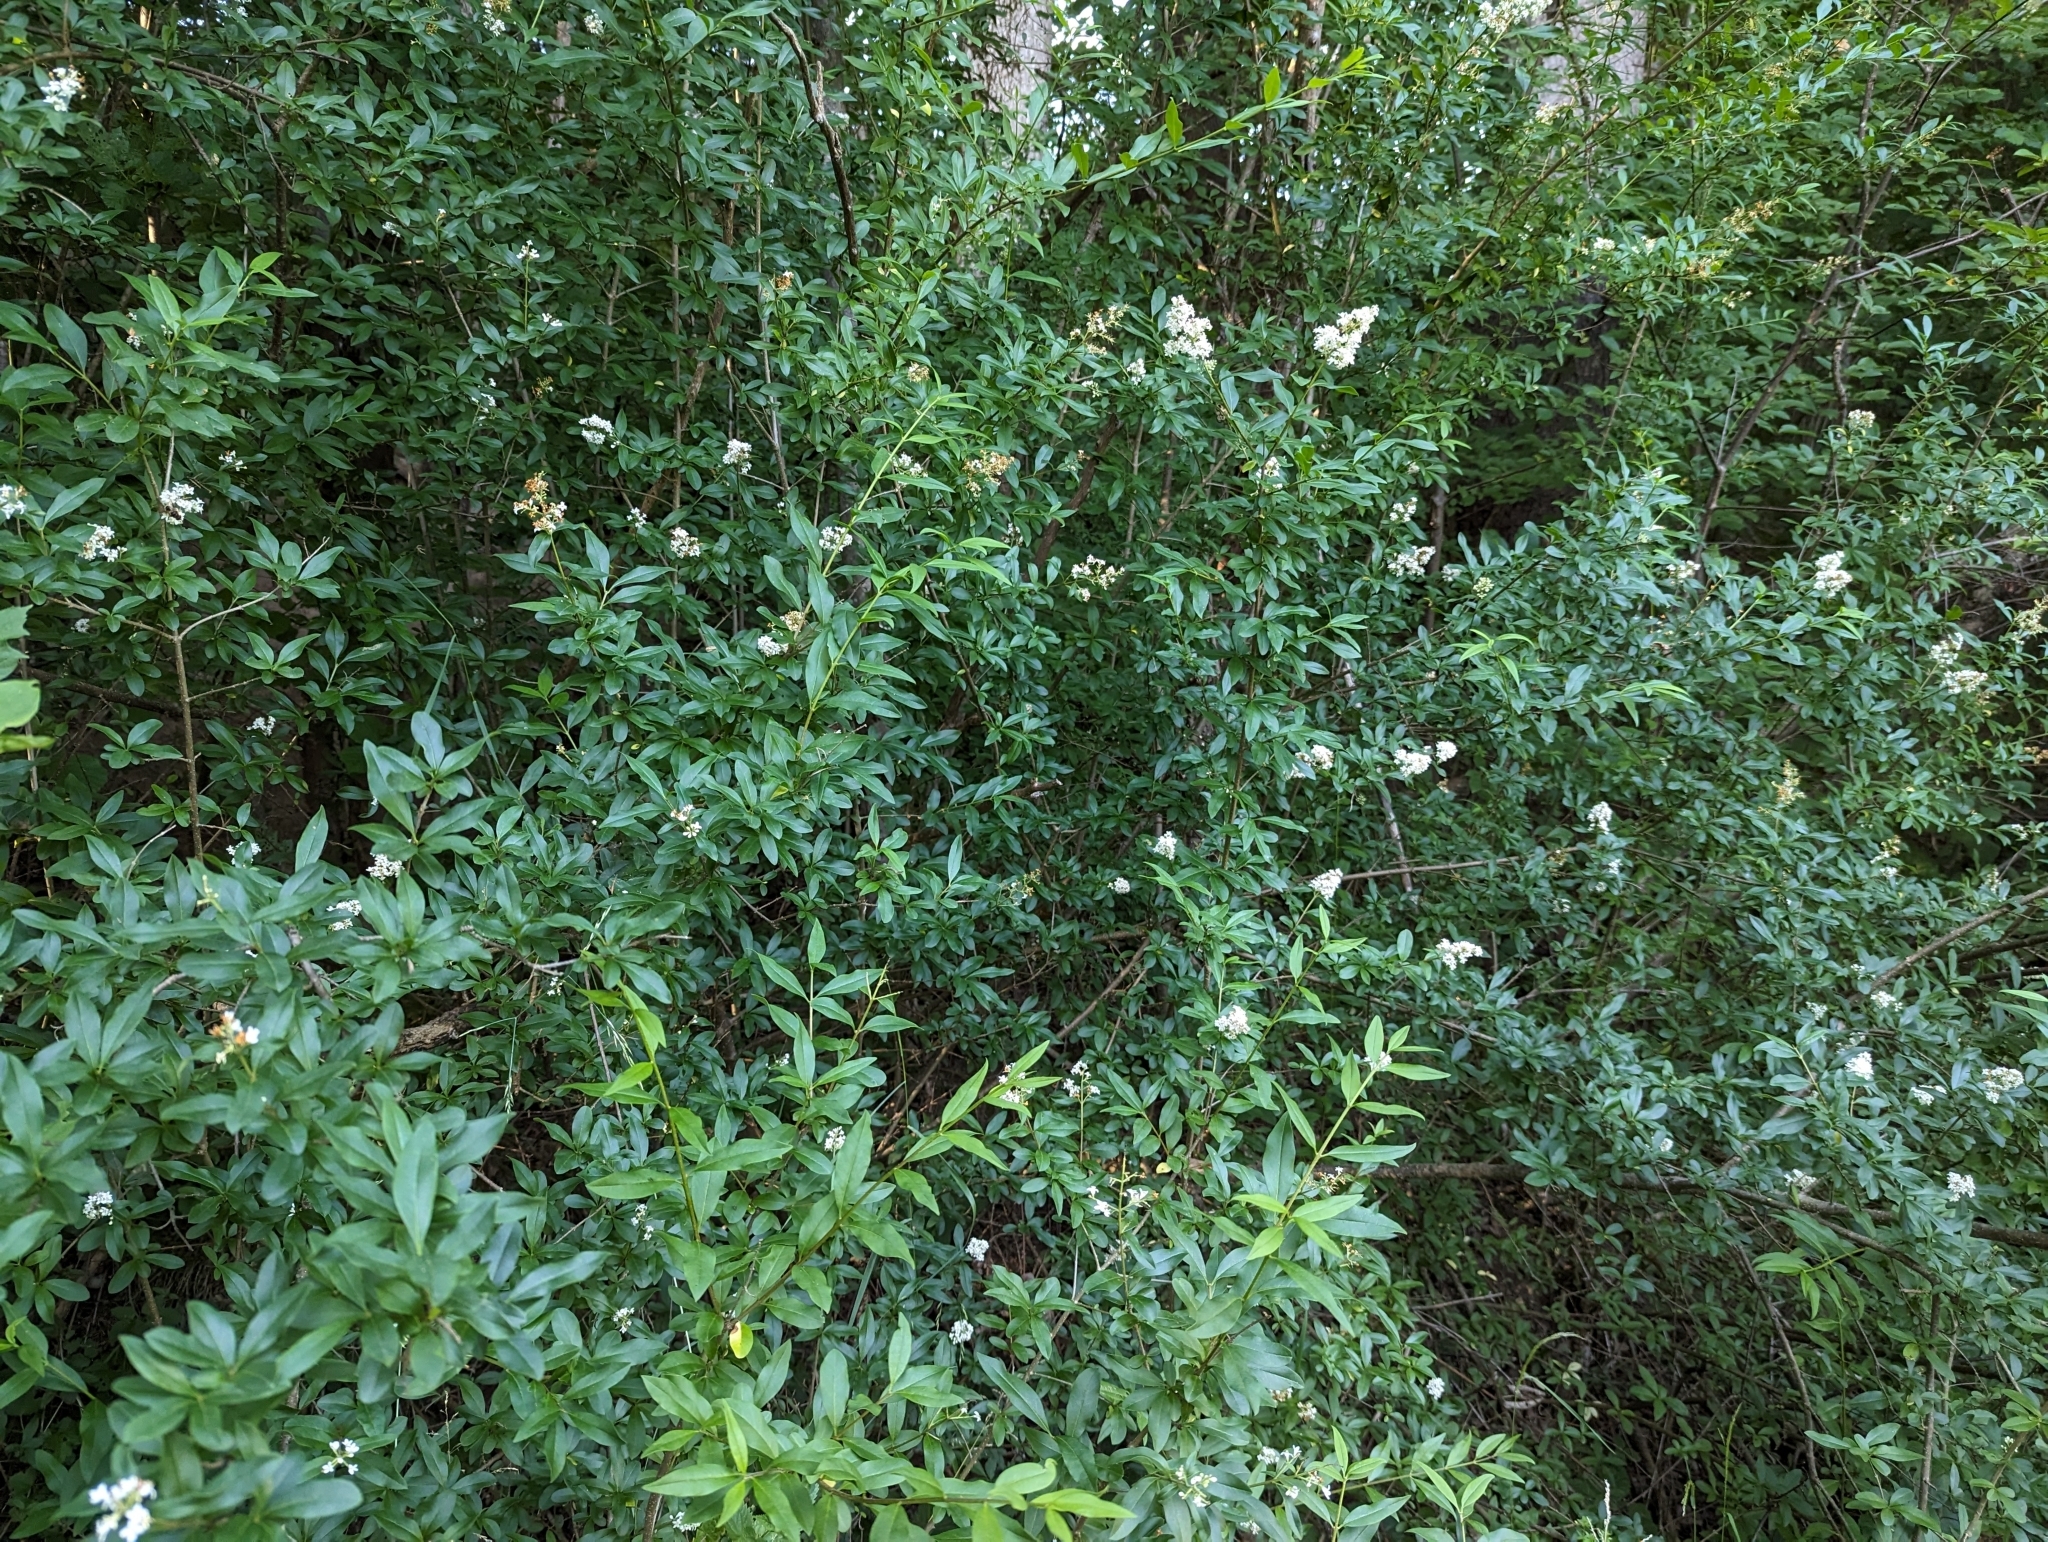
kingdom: Plantae
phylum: Tracheophyta
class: Magnoliopsida
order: Lamiales
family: Oleaceae
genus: Ligustrum
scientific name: Ligustrum vulgare
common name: Wild privet
